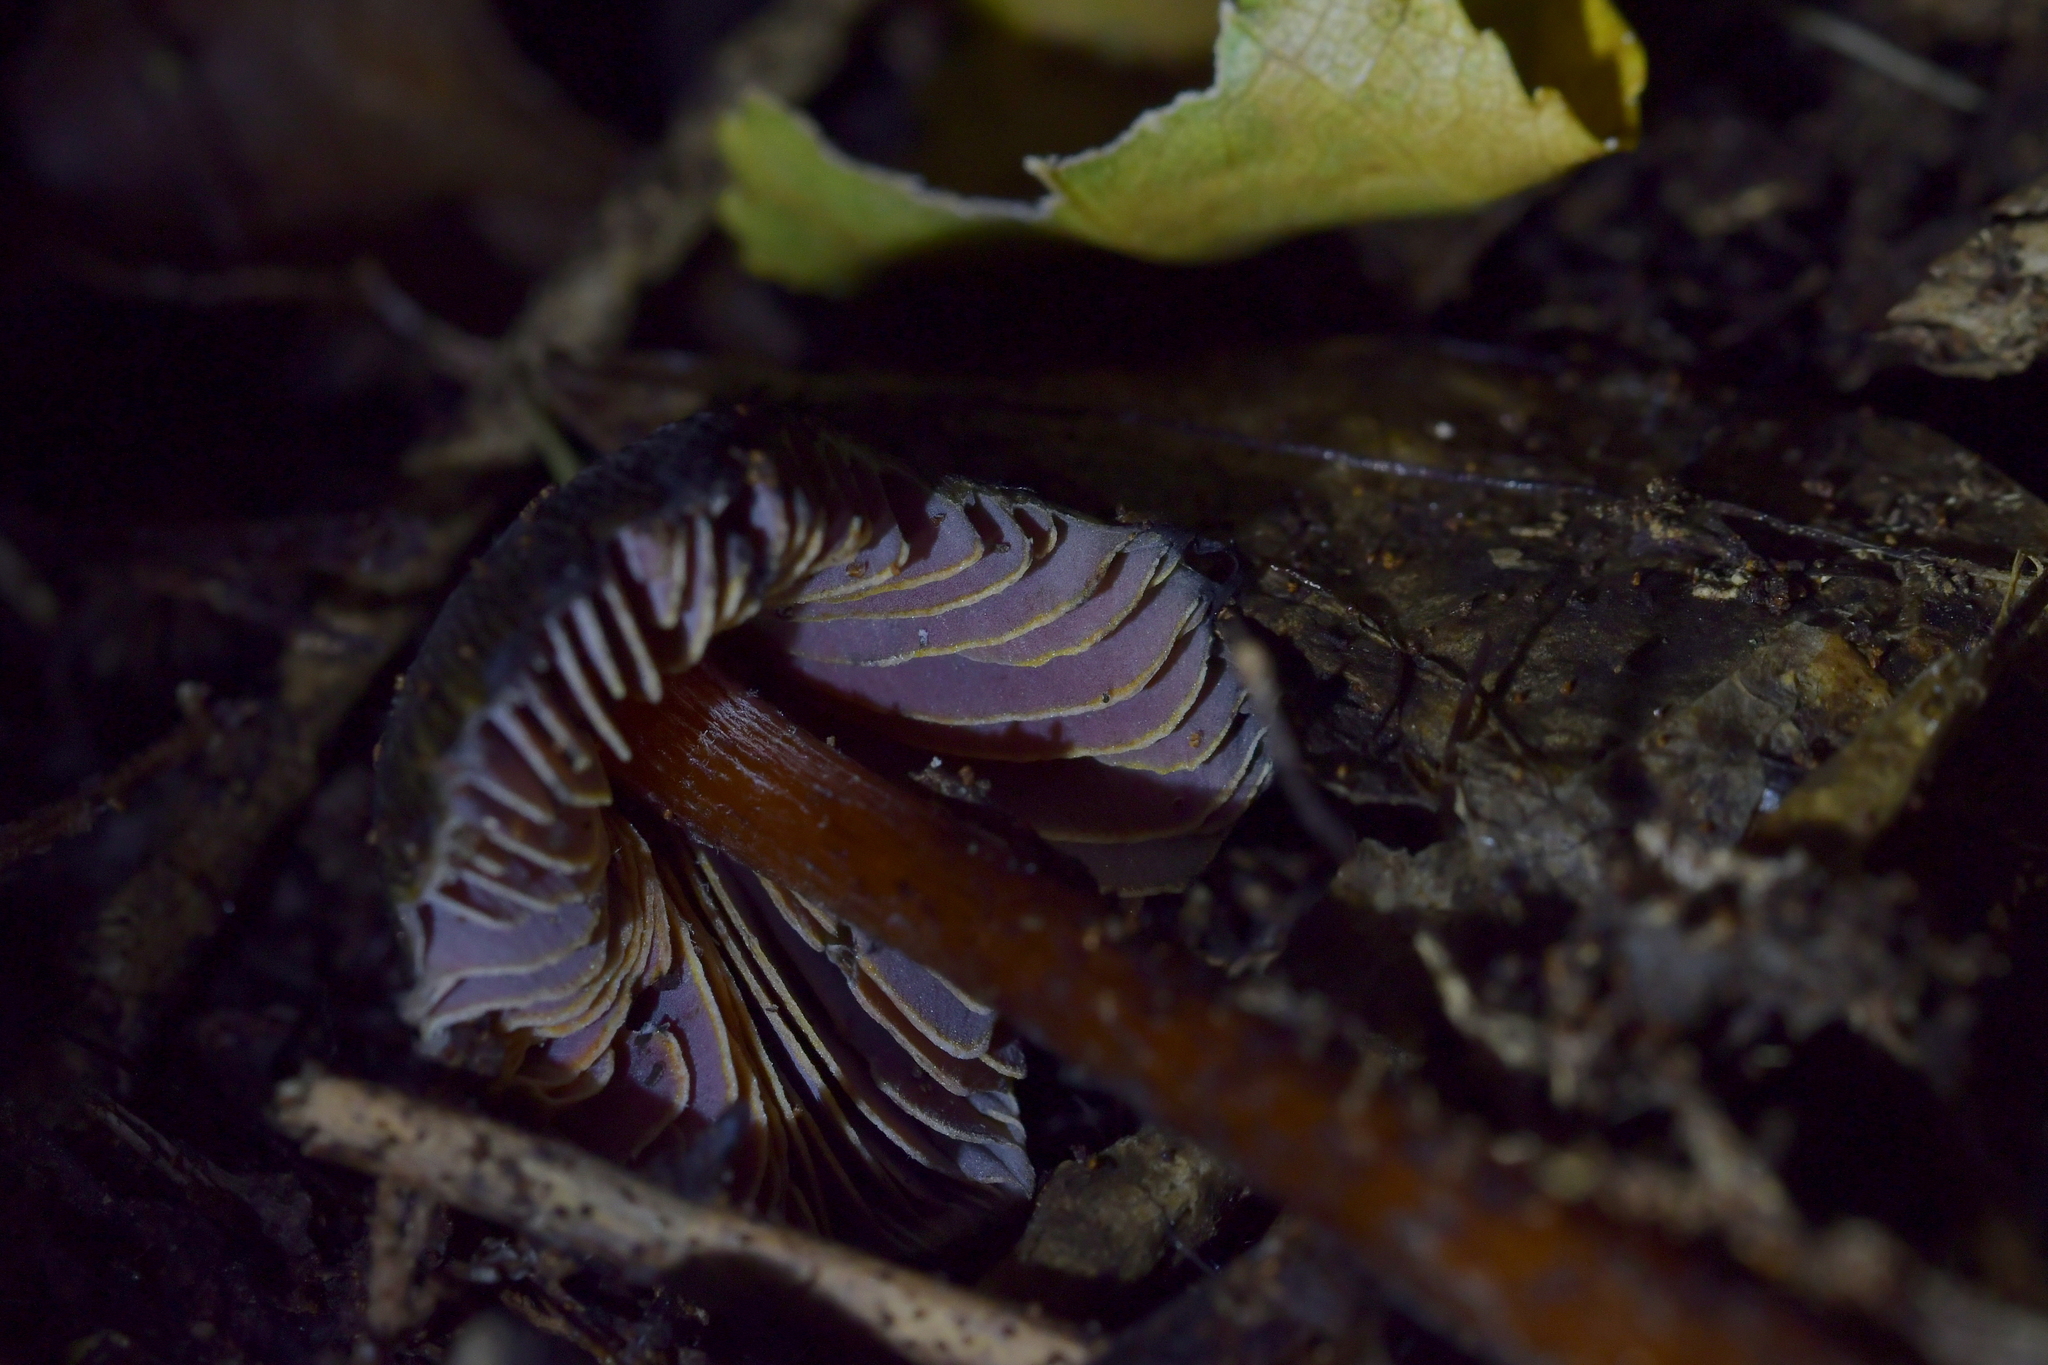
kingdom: Fungi
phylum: Basidiomycota
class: Agaricomycetes
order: Agaricales
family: Hygrophoraceae
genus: Hygrocybe
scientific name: Hygrocybe astatogala
